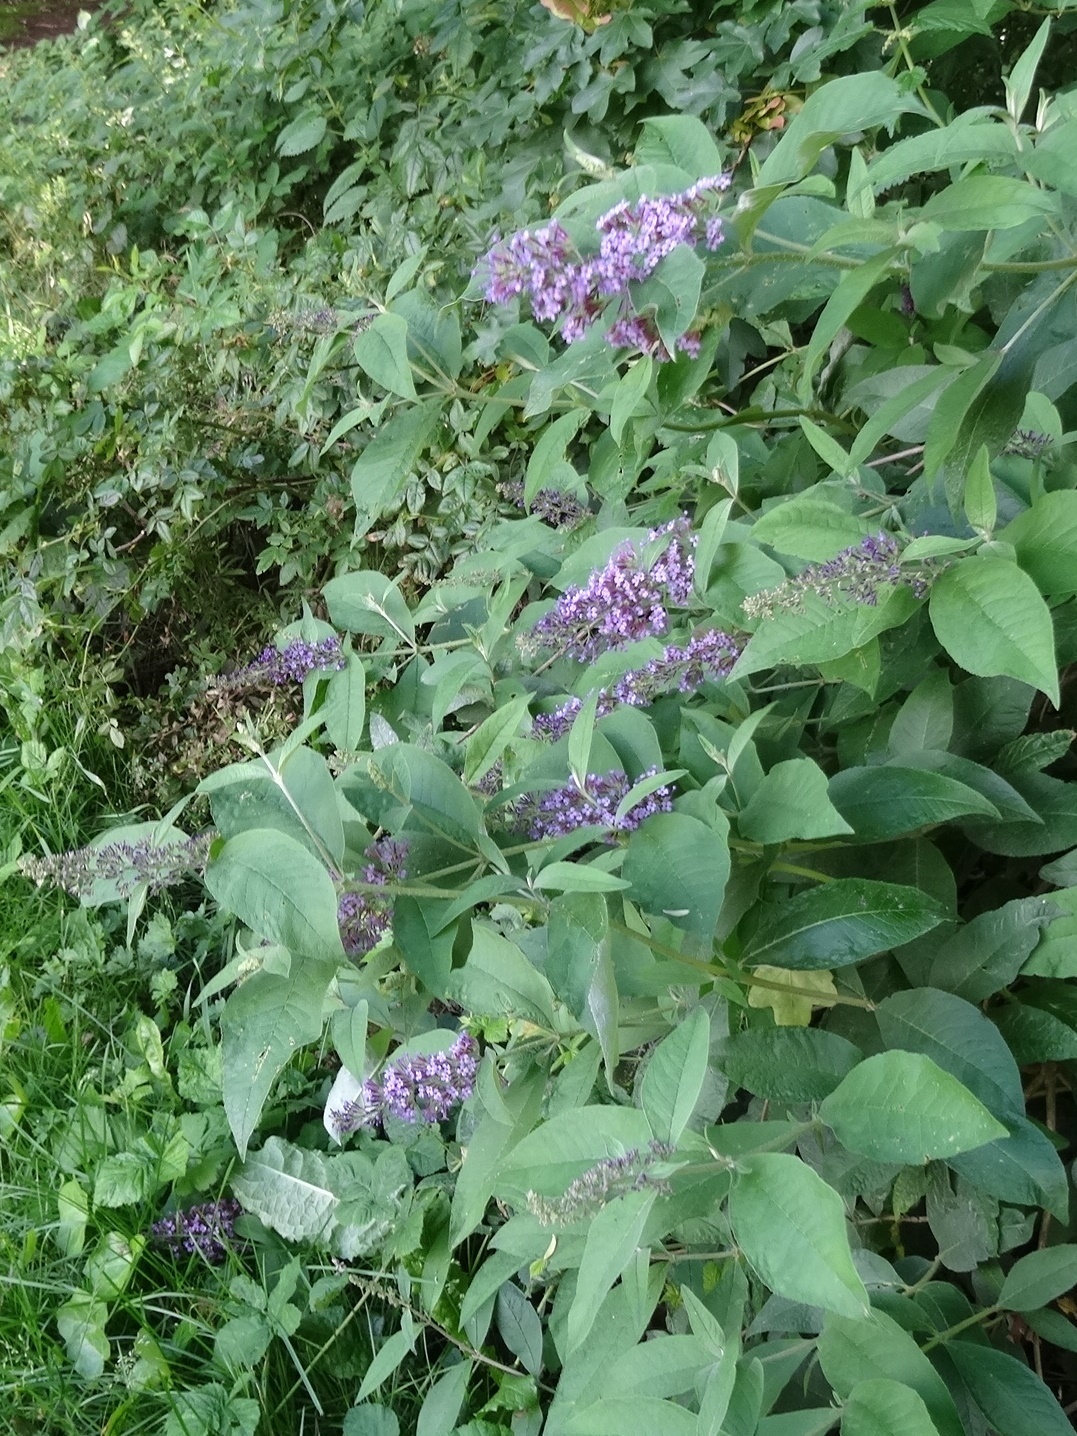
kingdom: Plantae
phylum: Tracheophyta
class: Magnoliopsida
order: Lamiales
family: Scrophulariaceae
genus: Buddleja
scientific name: Buddleja davidii
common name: Butterfly-bush
